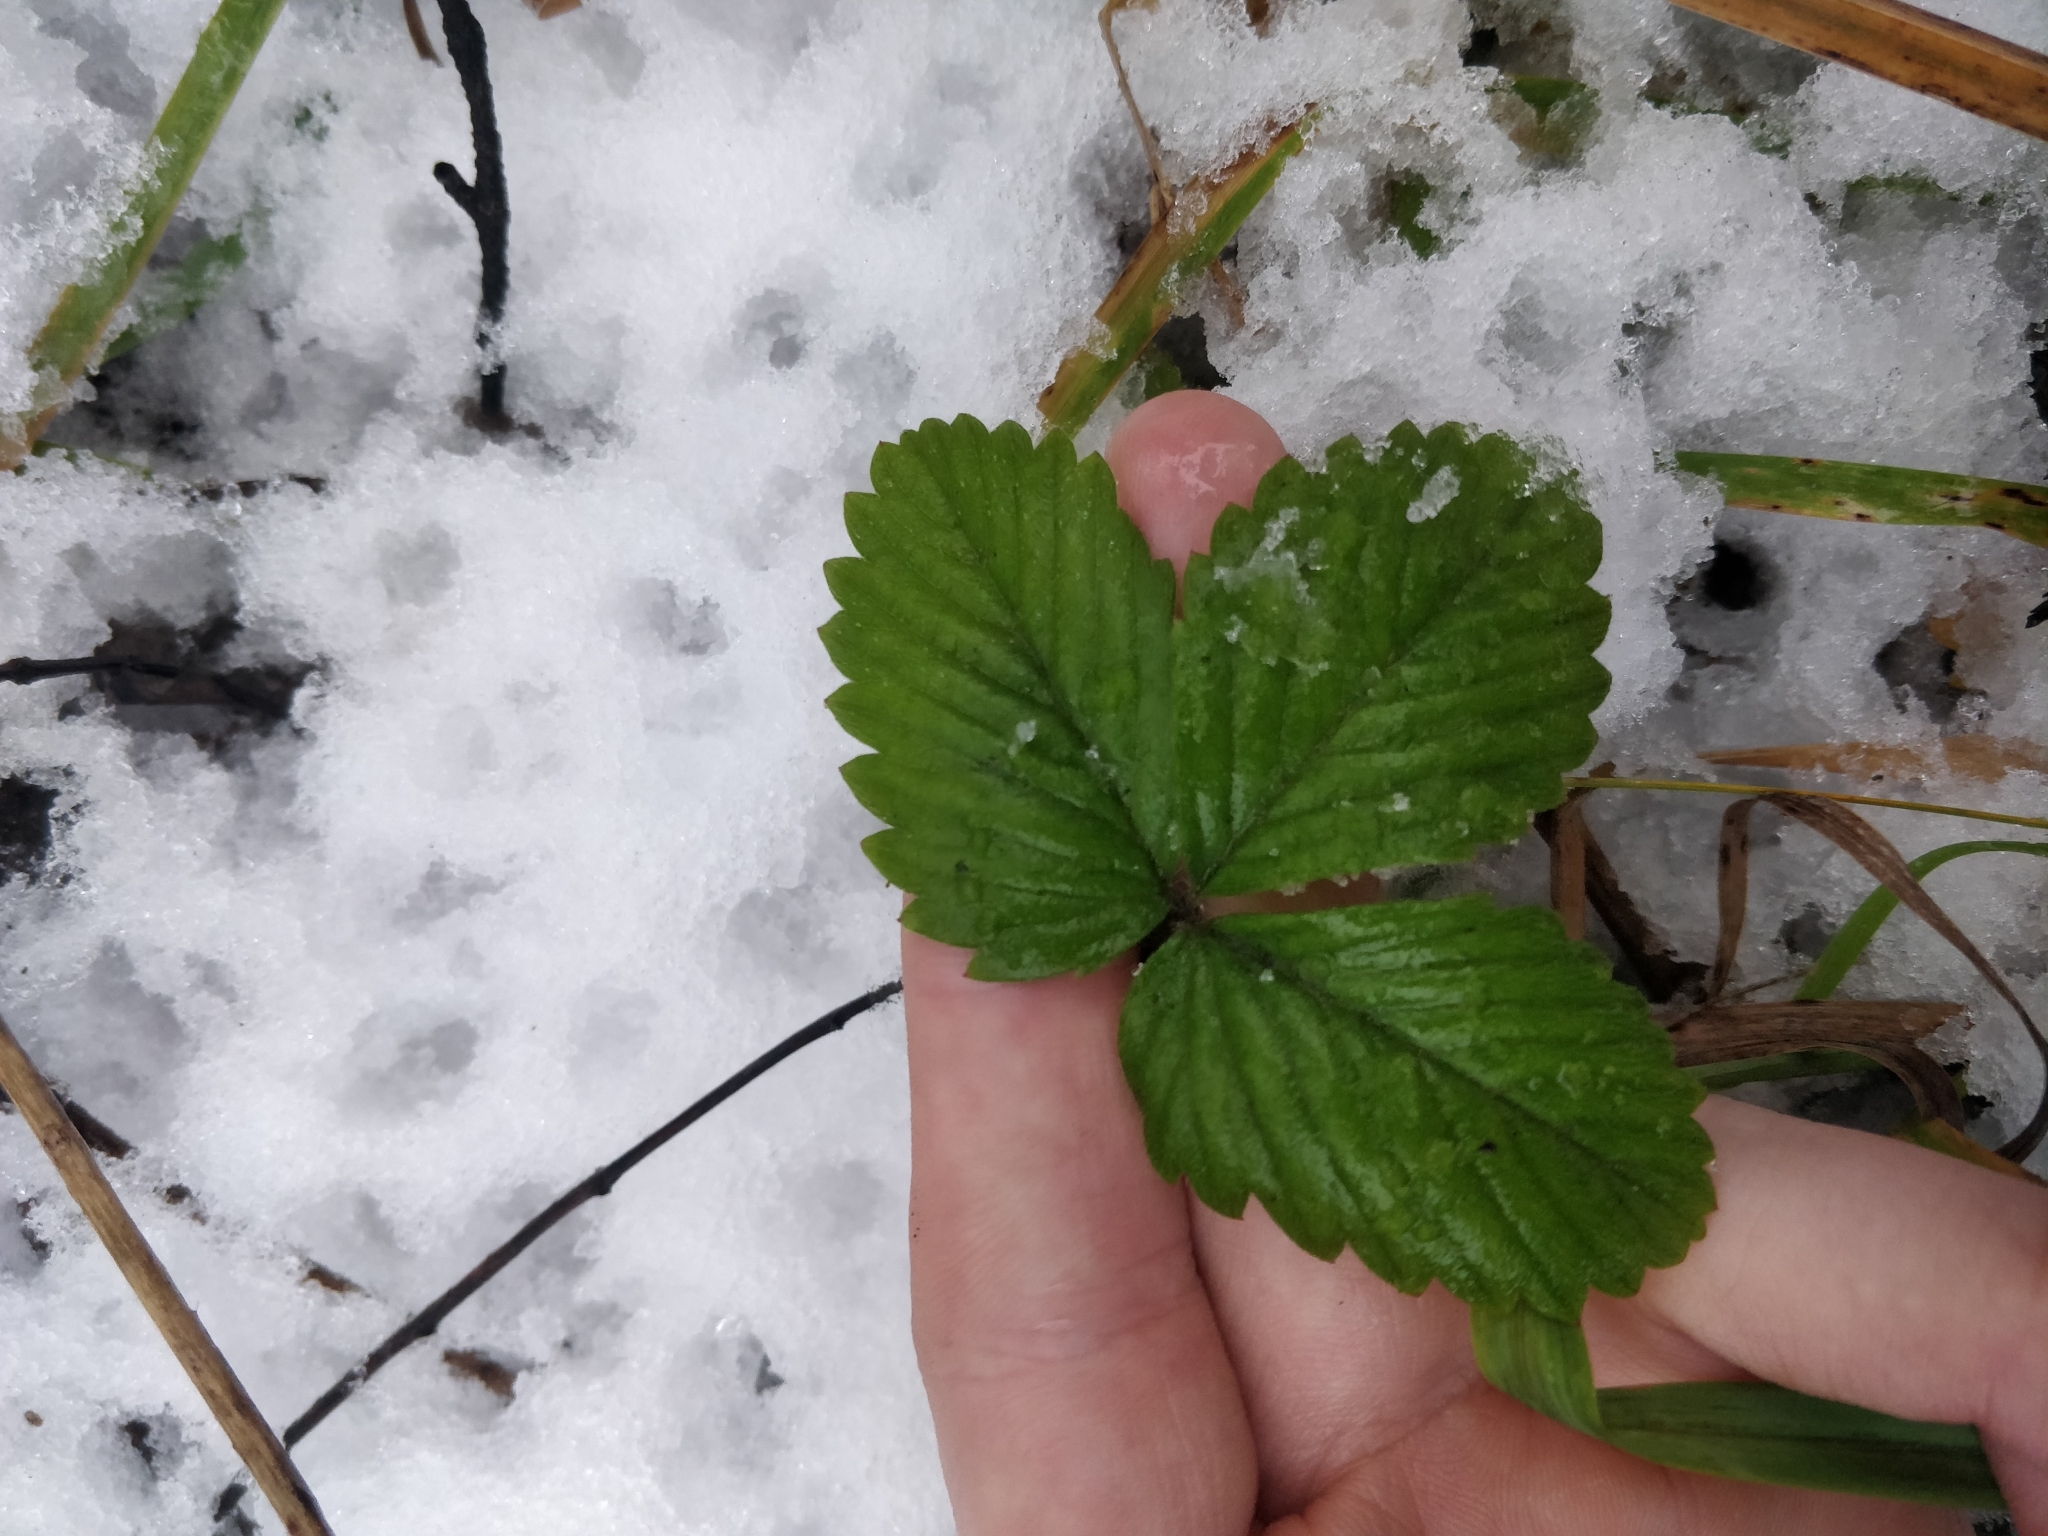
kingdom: Plantae
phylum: Tracheophyta
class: Magnoliopsida
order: Rosales
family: Rosaceae
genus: Fragaria
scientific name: Fragaria vesca
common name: Wild strawberry
